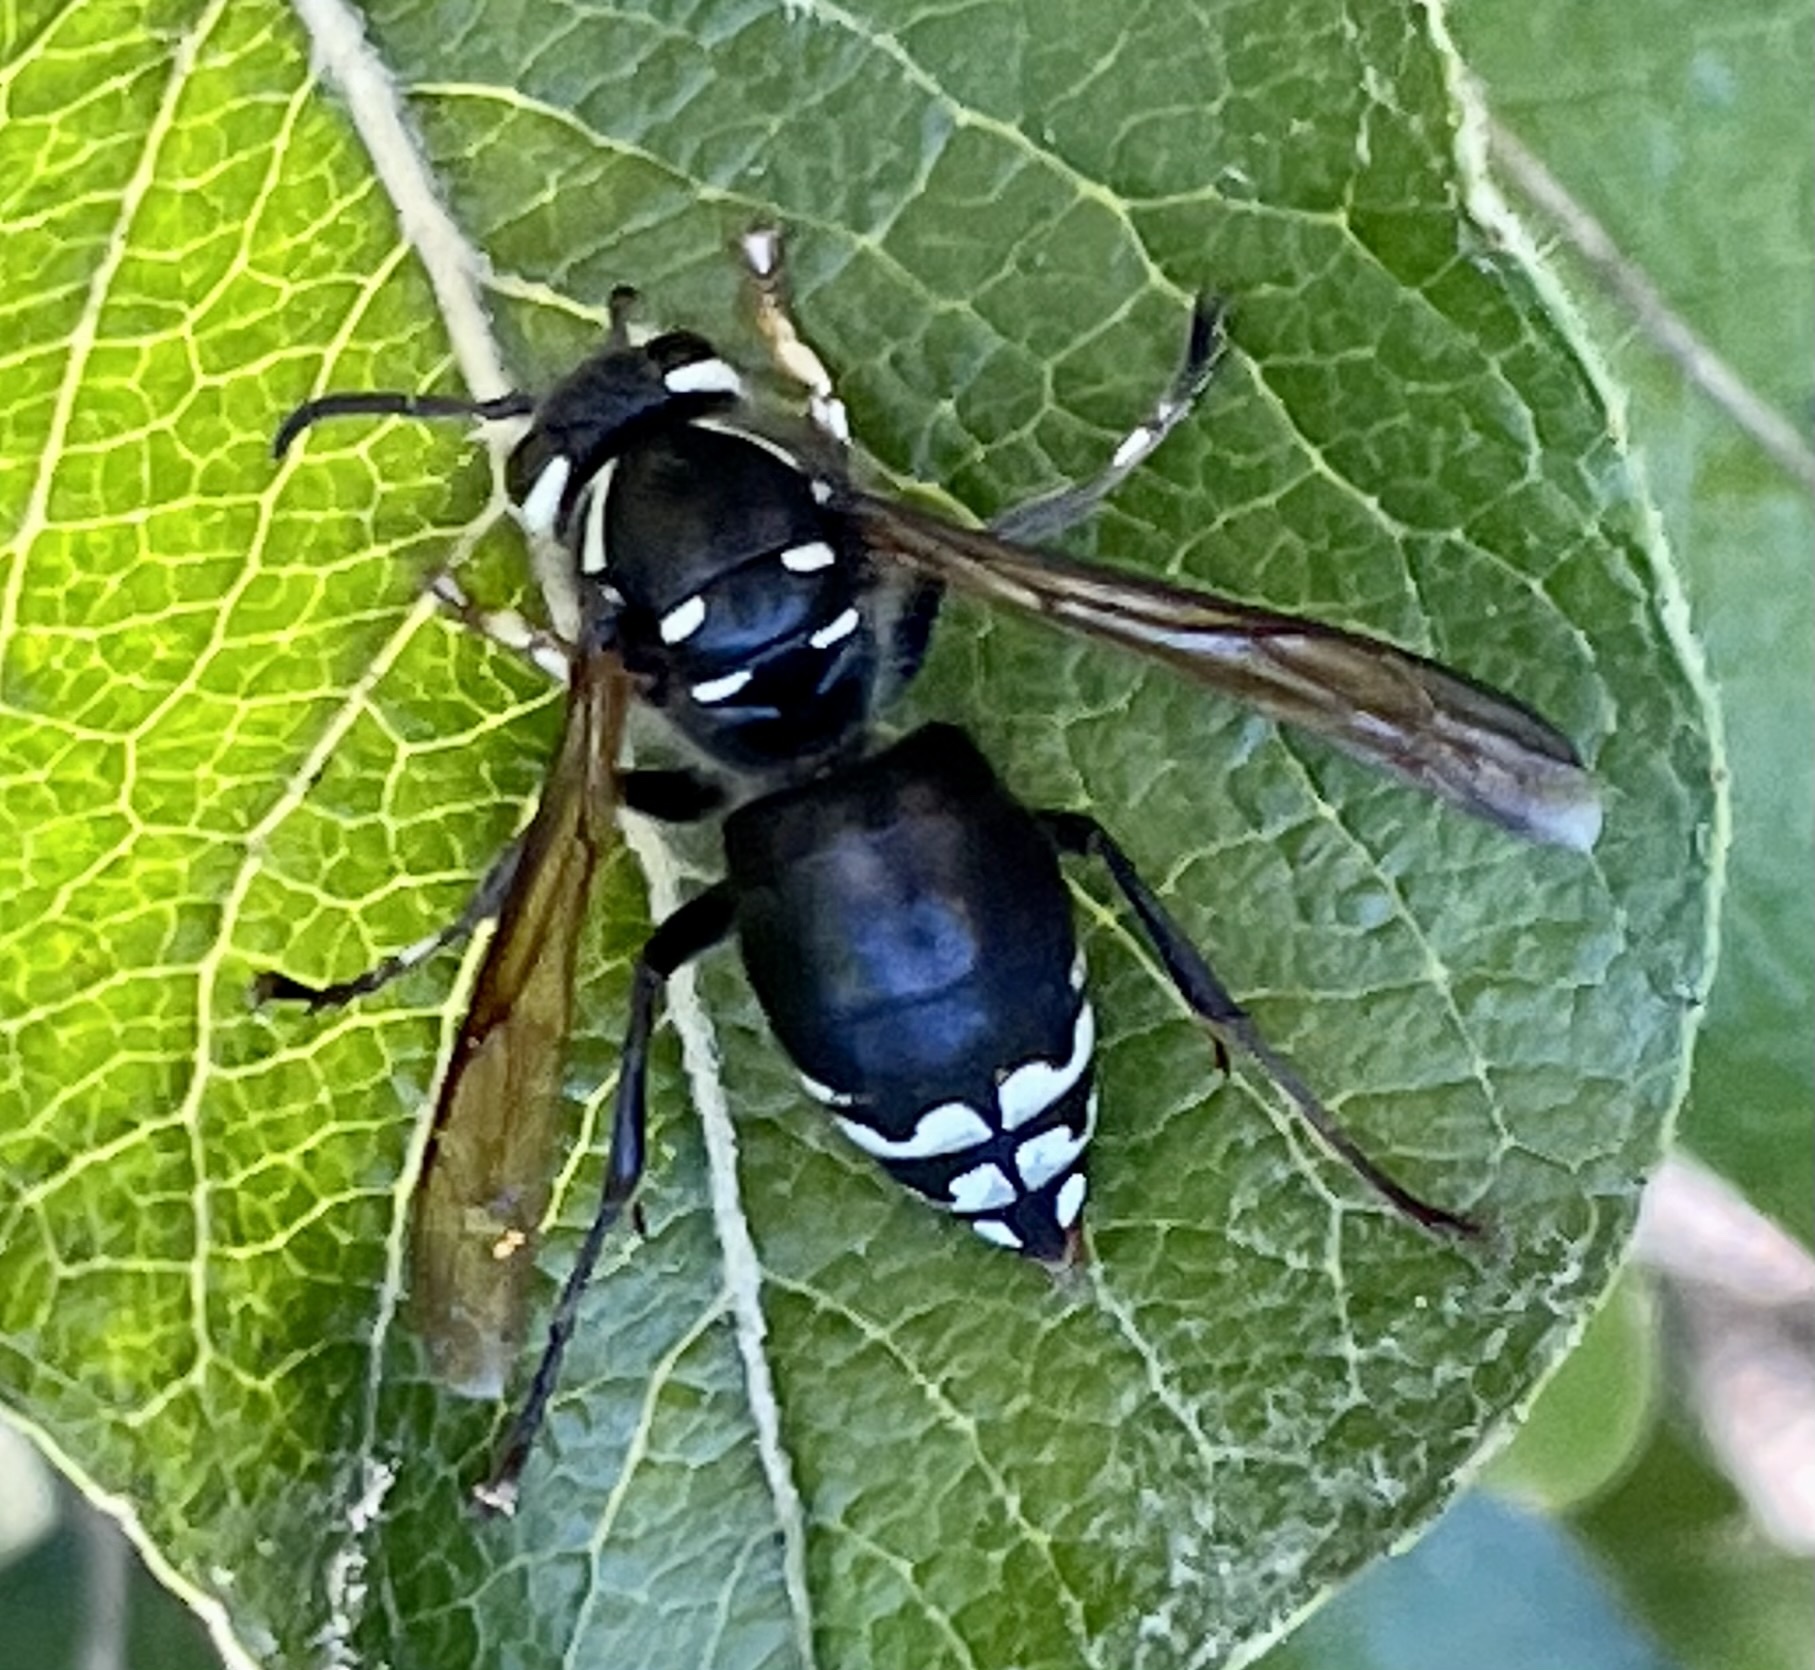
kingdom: Animalia
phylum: Arthropoda
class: Insecta
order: Hymenoptera
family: Vespidae
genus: Dolichovespula
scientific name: Dolichovespula maculata
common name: Bald-faced hornet
